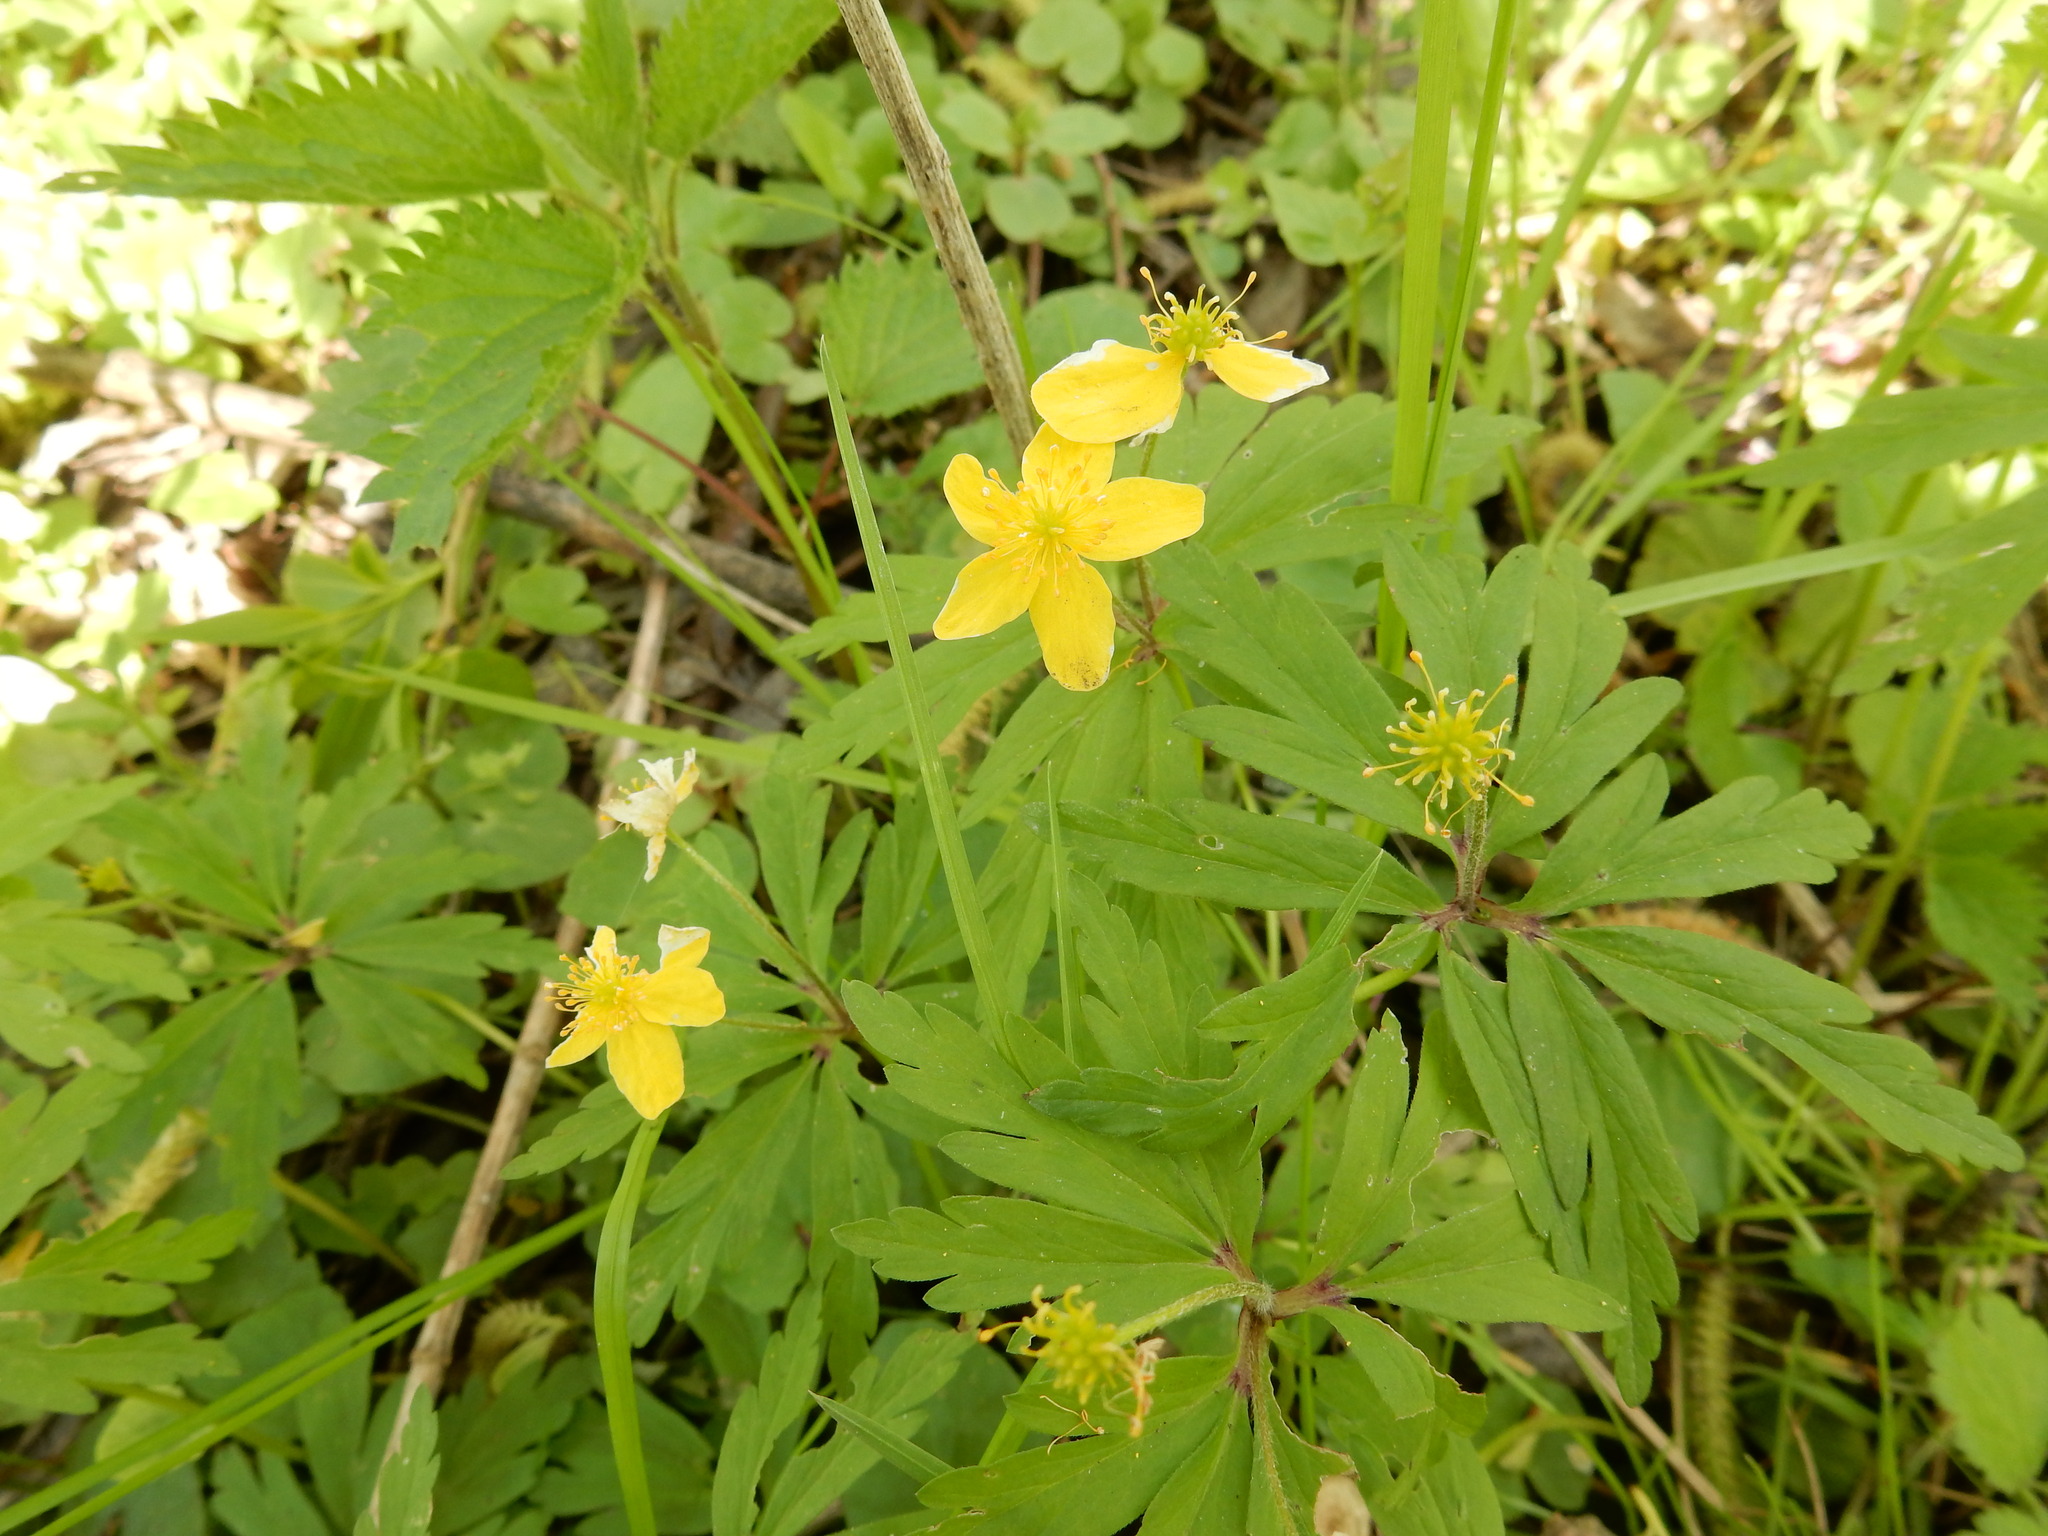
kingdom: Plantae
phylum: Tracheophyta
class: Magnoliopsida
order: Ranunculales
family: Ranunculaceae
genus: Anemone
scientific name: Anemone ranunculoides
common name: Yellow anemone
